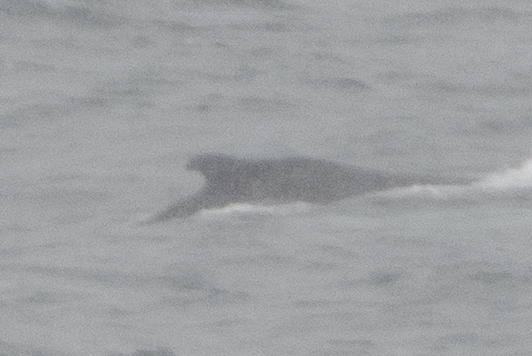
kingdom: Animalia
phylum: Chordata
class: Mammalia
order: Cetacea
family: Balaenopteridae
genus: Megaptera
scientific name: Megaptera novaeangliae
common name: Humpback whale
